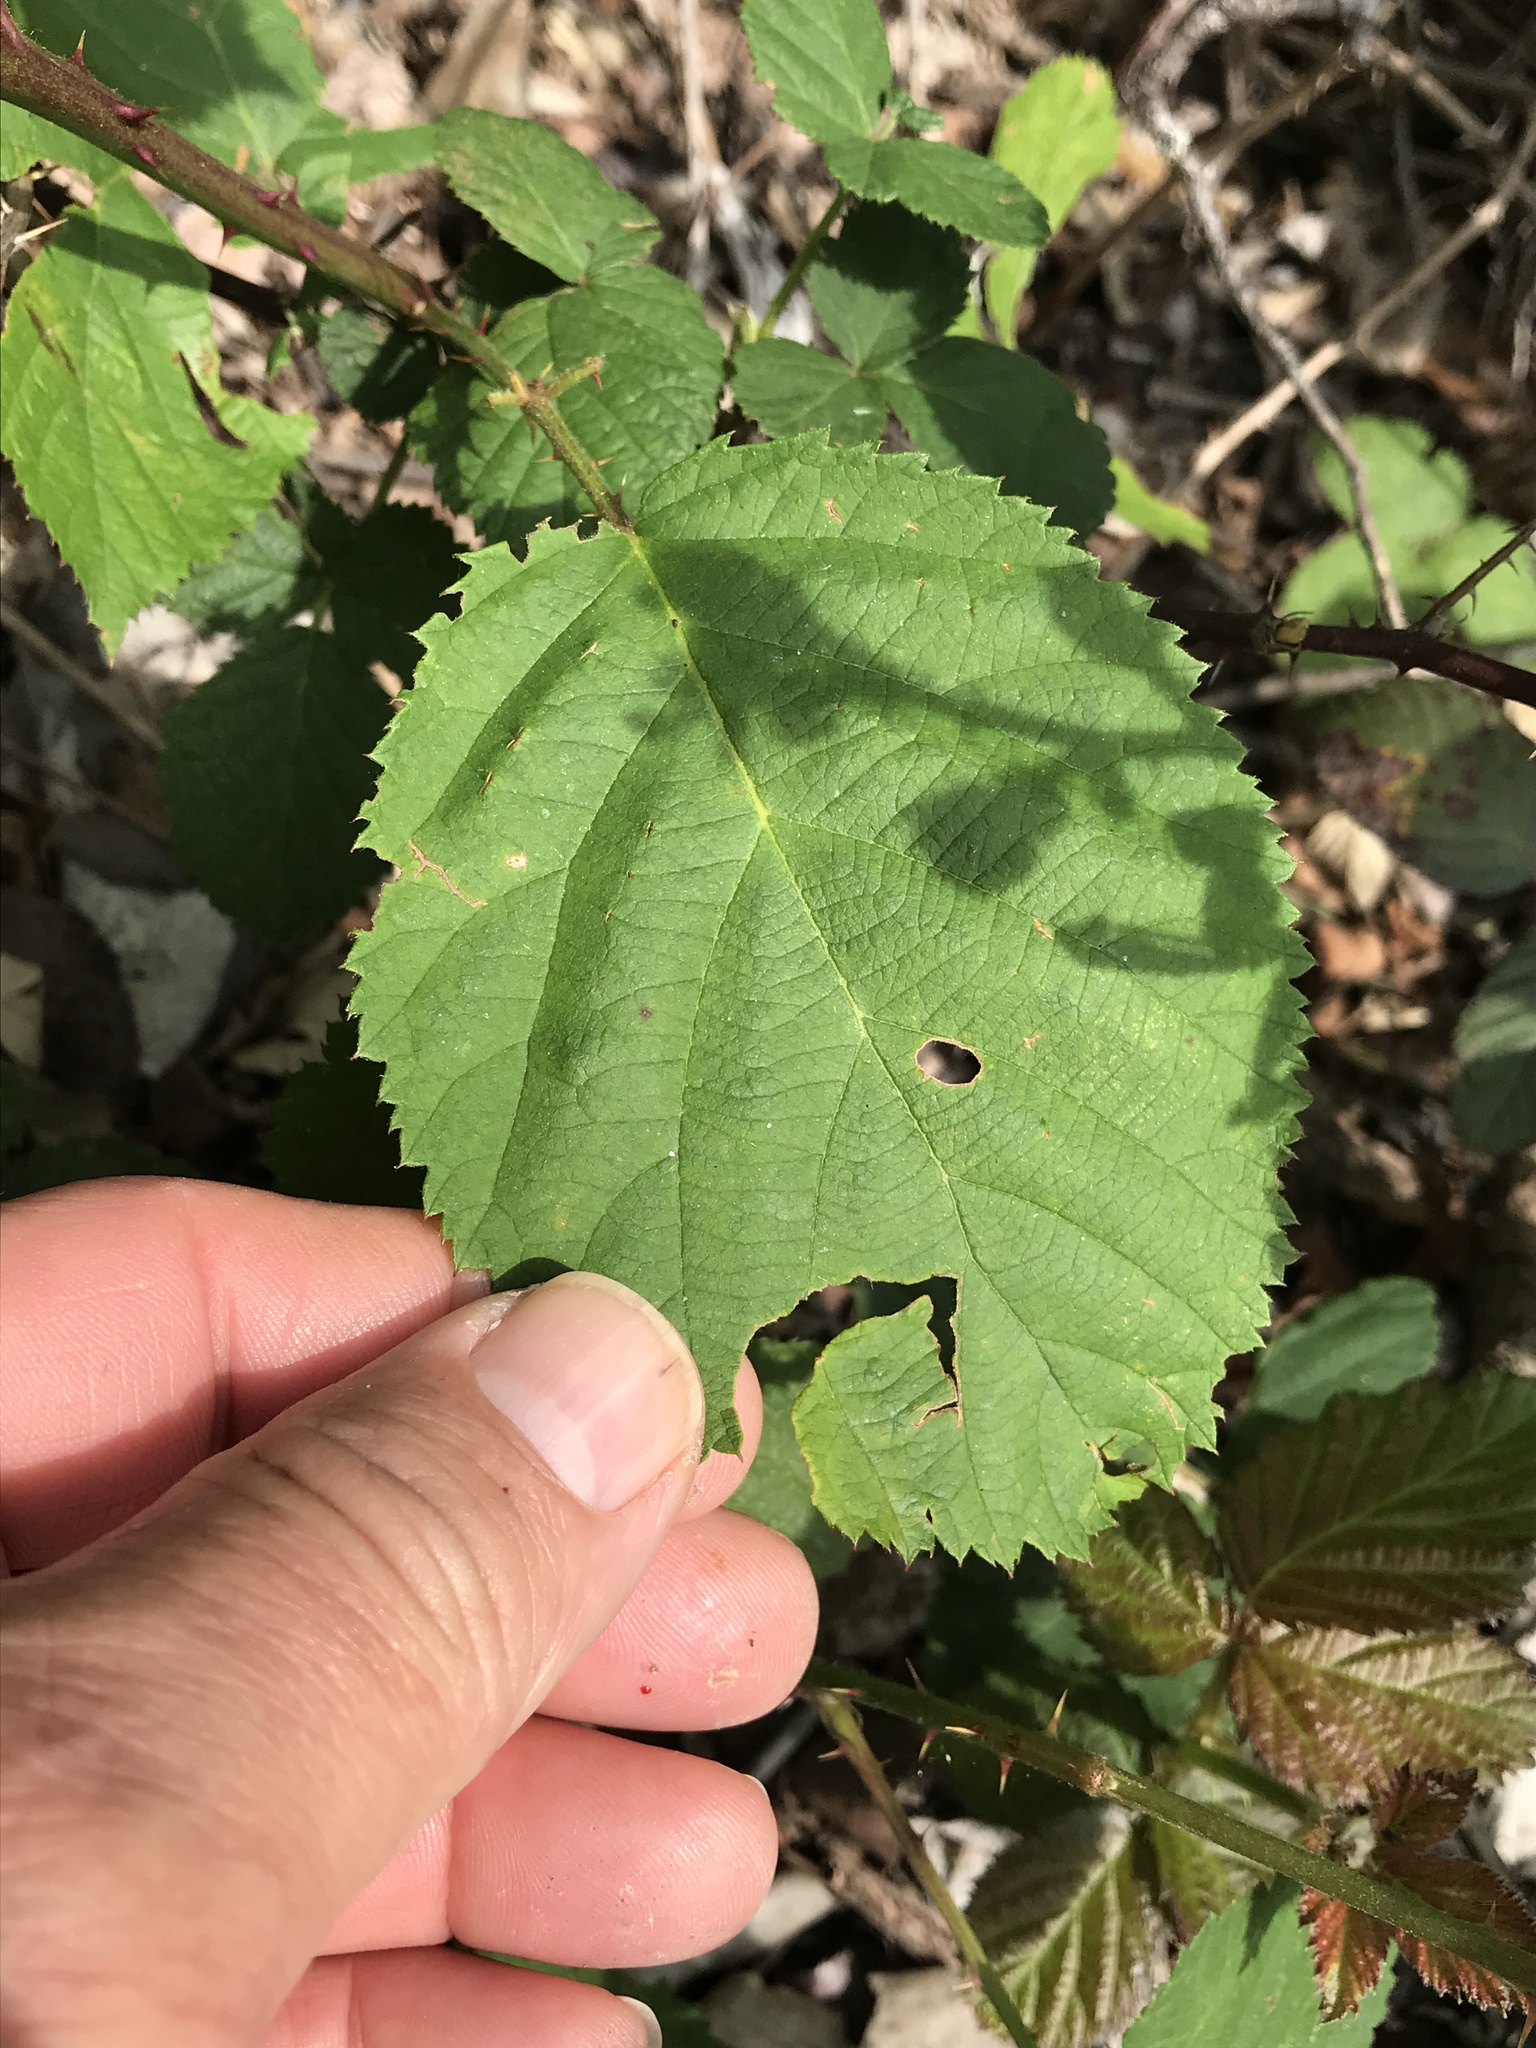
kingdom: Plantae
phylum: Tracheophyta
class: Magnoliopsida
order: Rosales
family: Rosaceae
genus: Rubus
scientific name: Rubus bifrons
